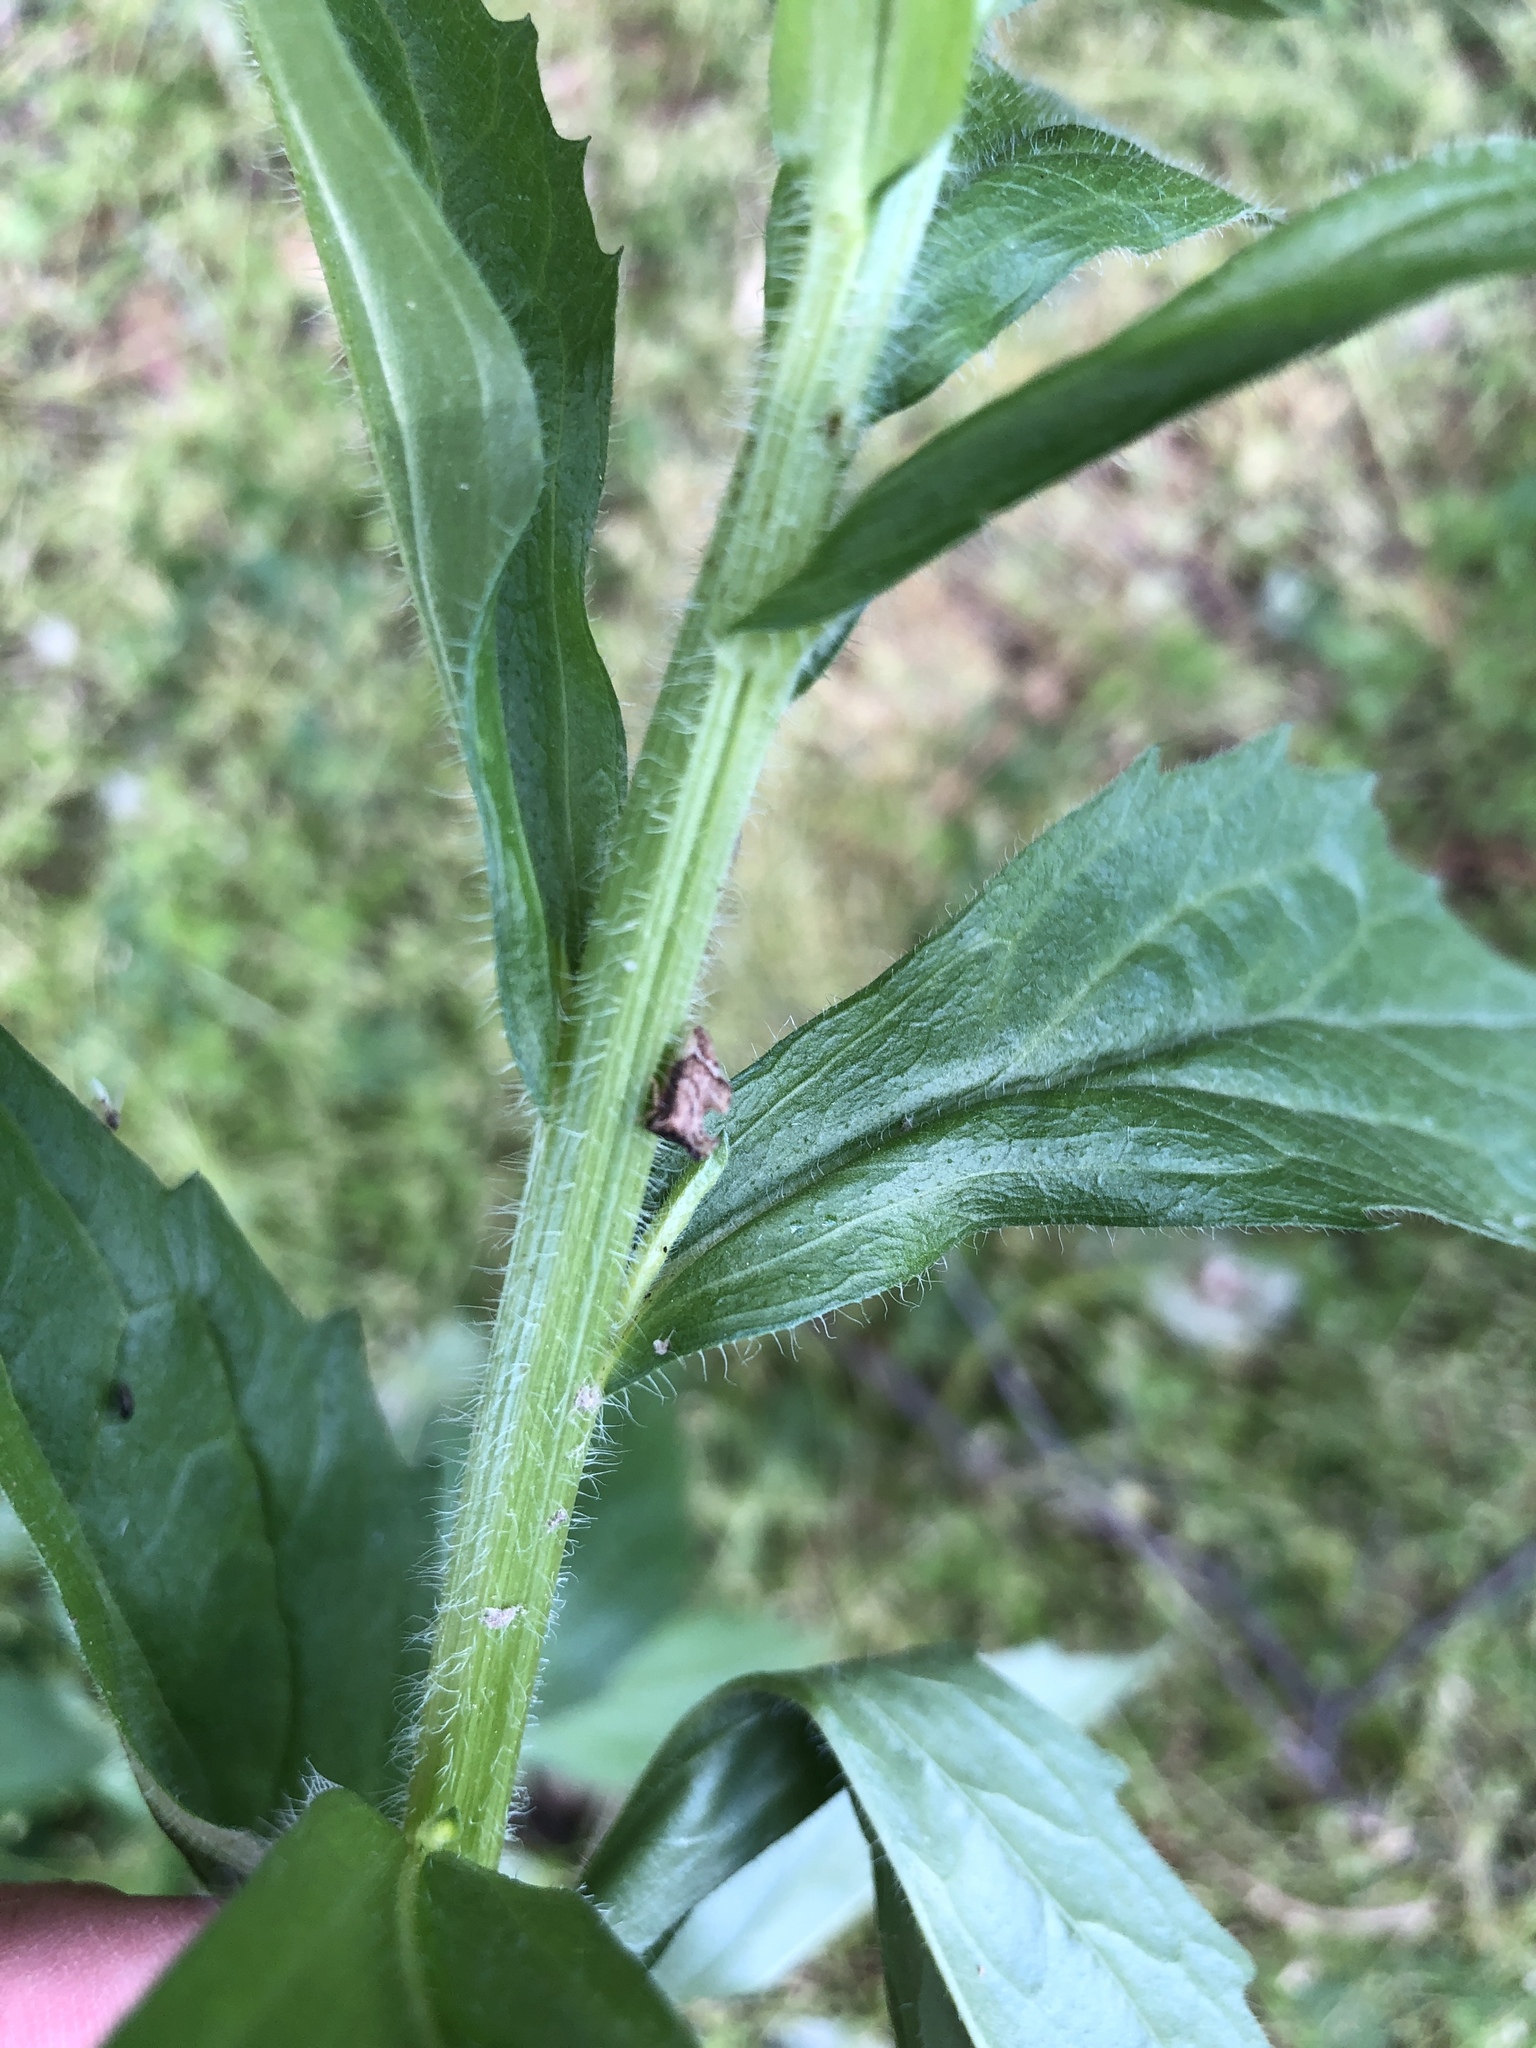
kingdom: Animalia
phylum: Arthropoda
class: Insecta
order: Hemiptera
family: Membracidae
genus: Entylia
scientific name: Entylia carinata
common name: Keeled treehopper
